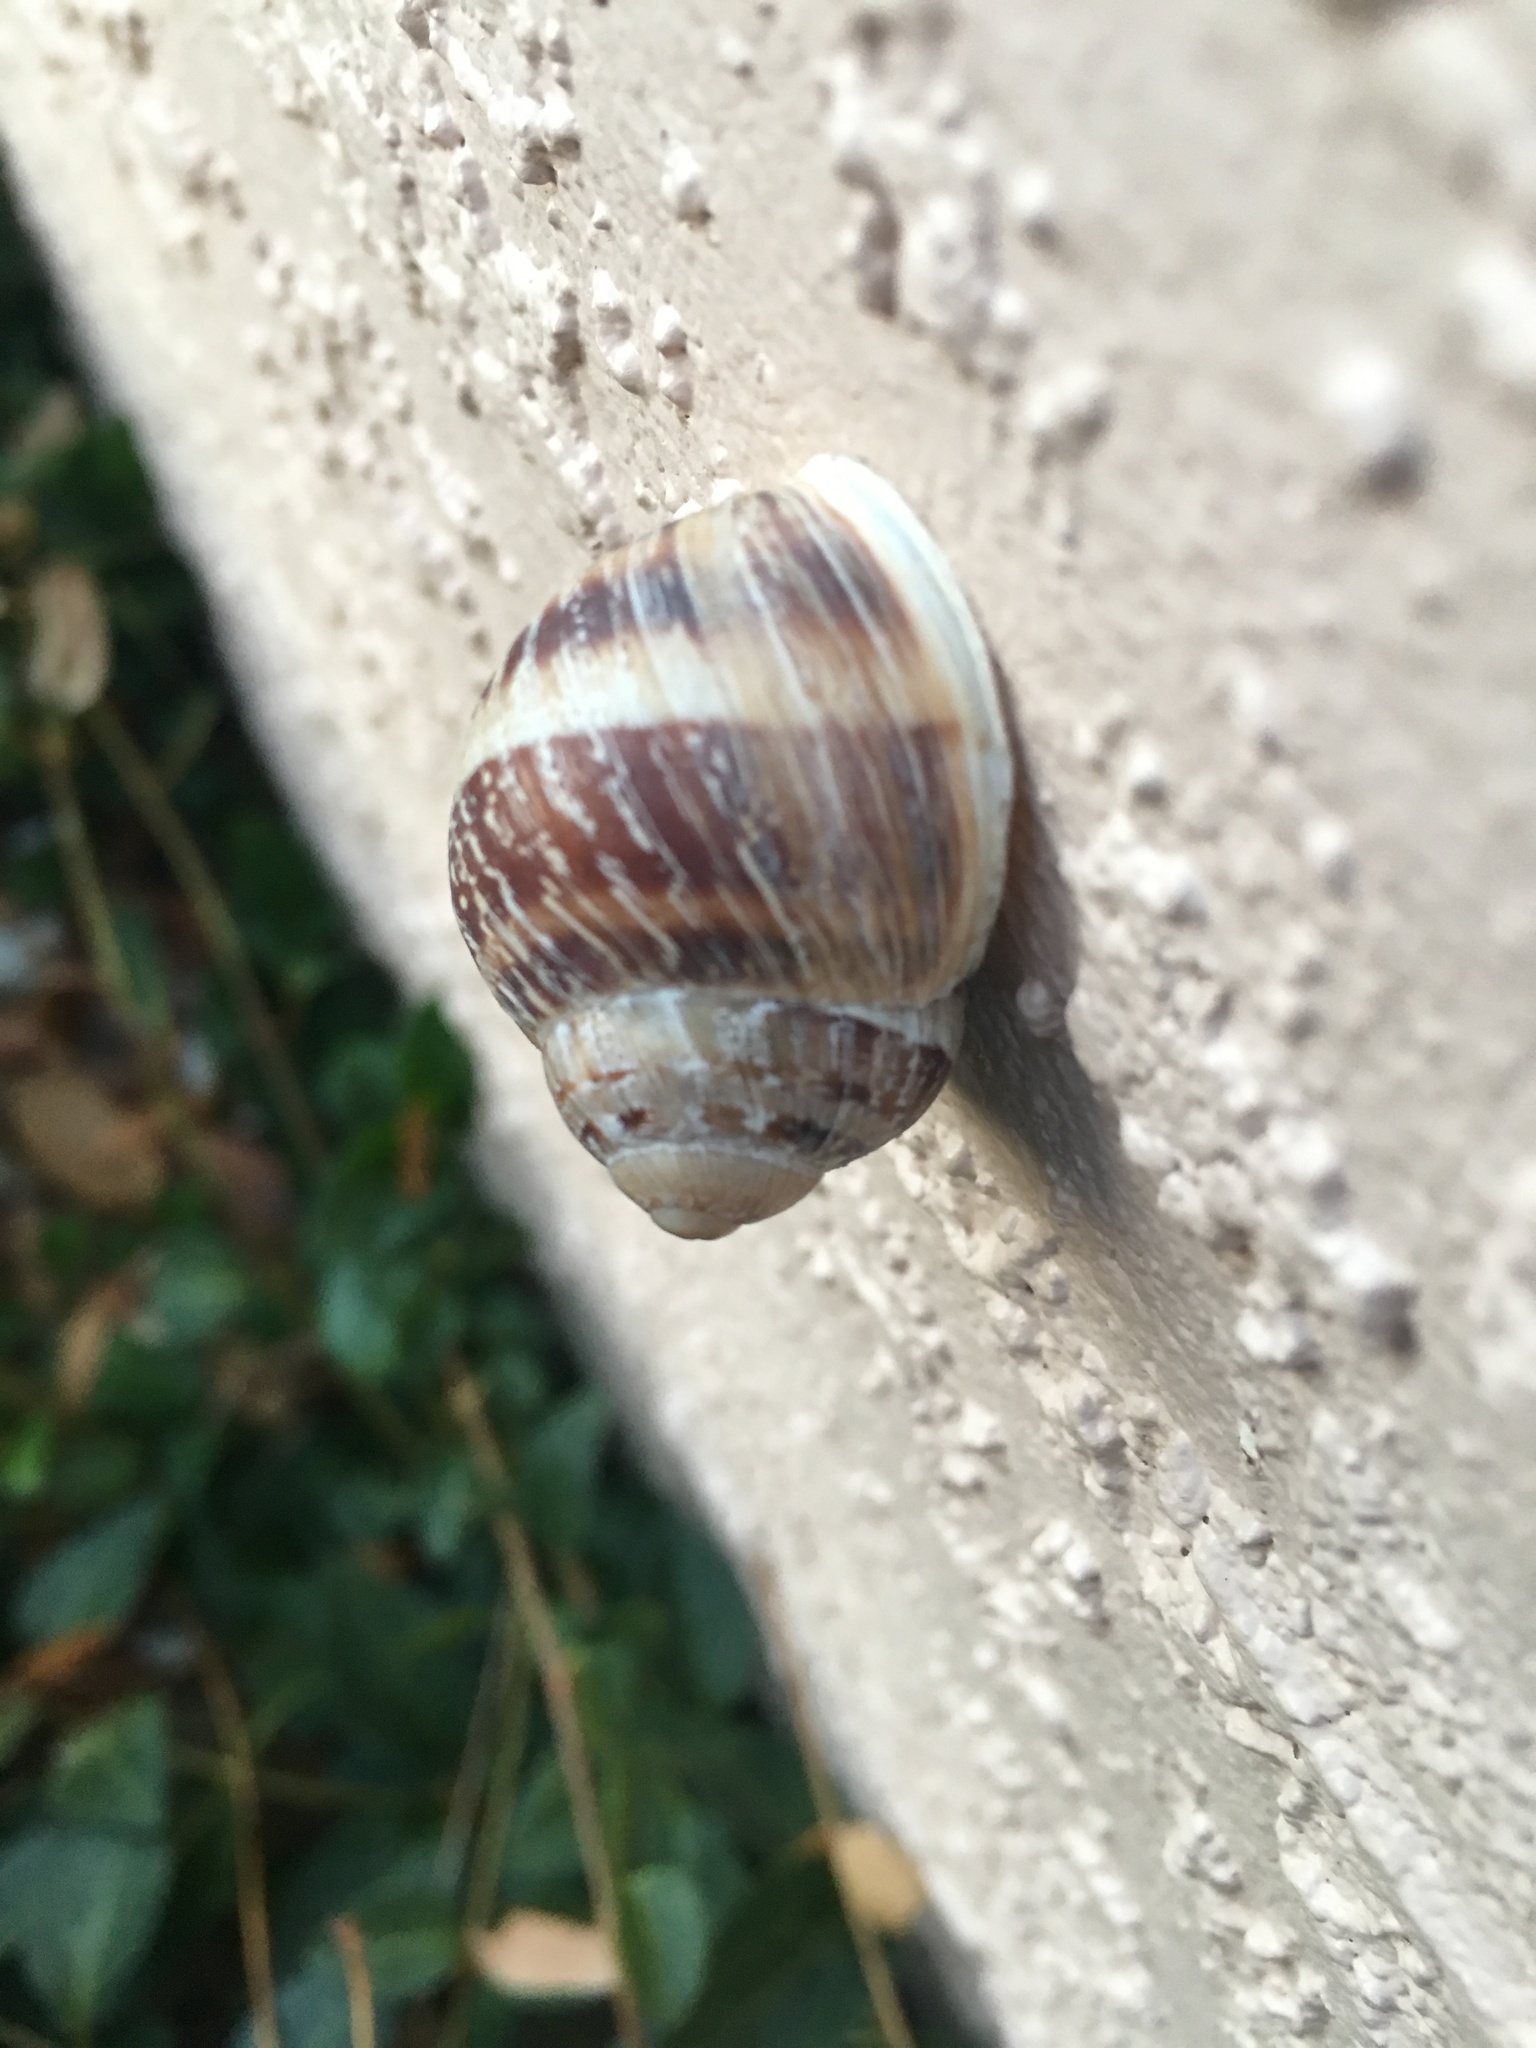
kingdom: Animalia
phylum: Mollusca
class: Gastropoda
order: Stylommatophora
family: Helicidae
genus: Cornu
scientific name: Cornu aspersum
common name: Brown garden snail
